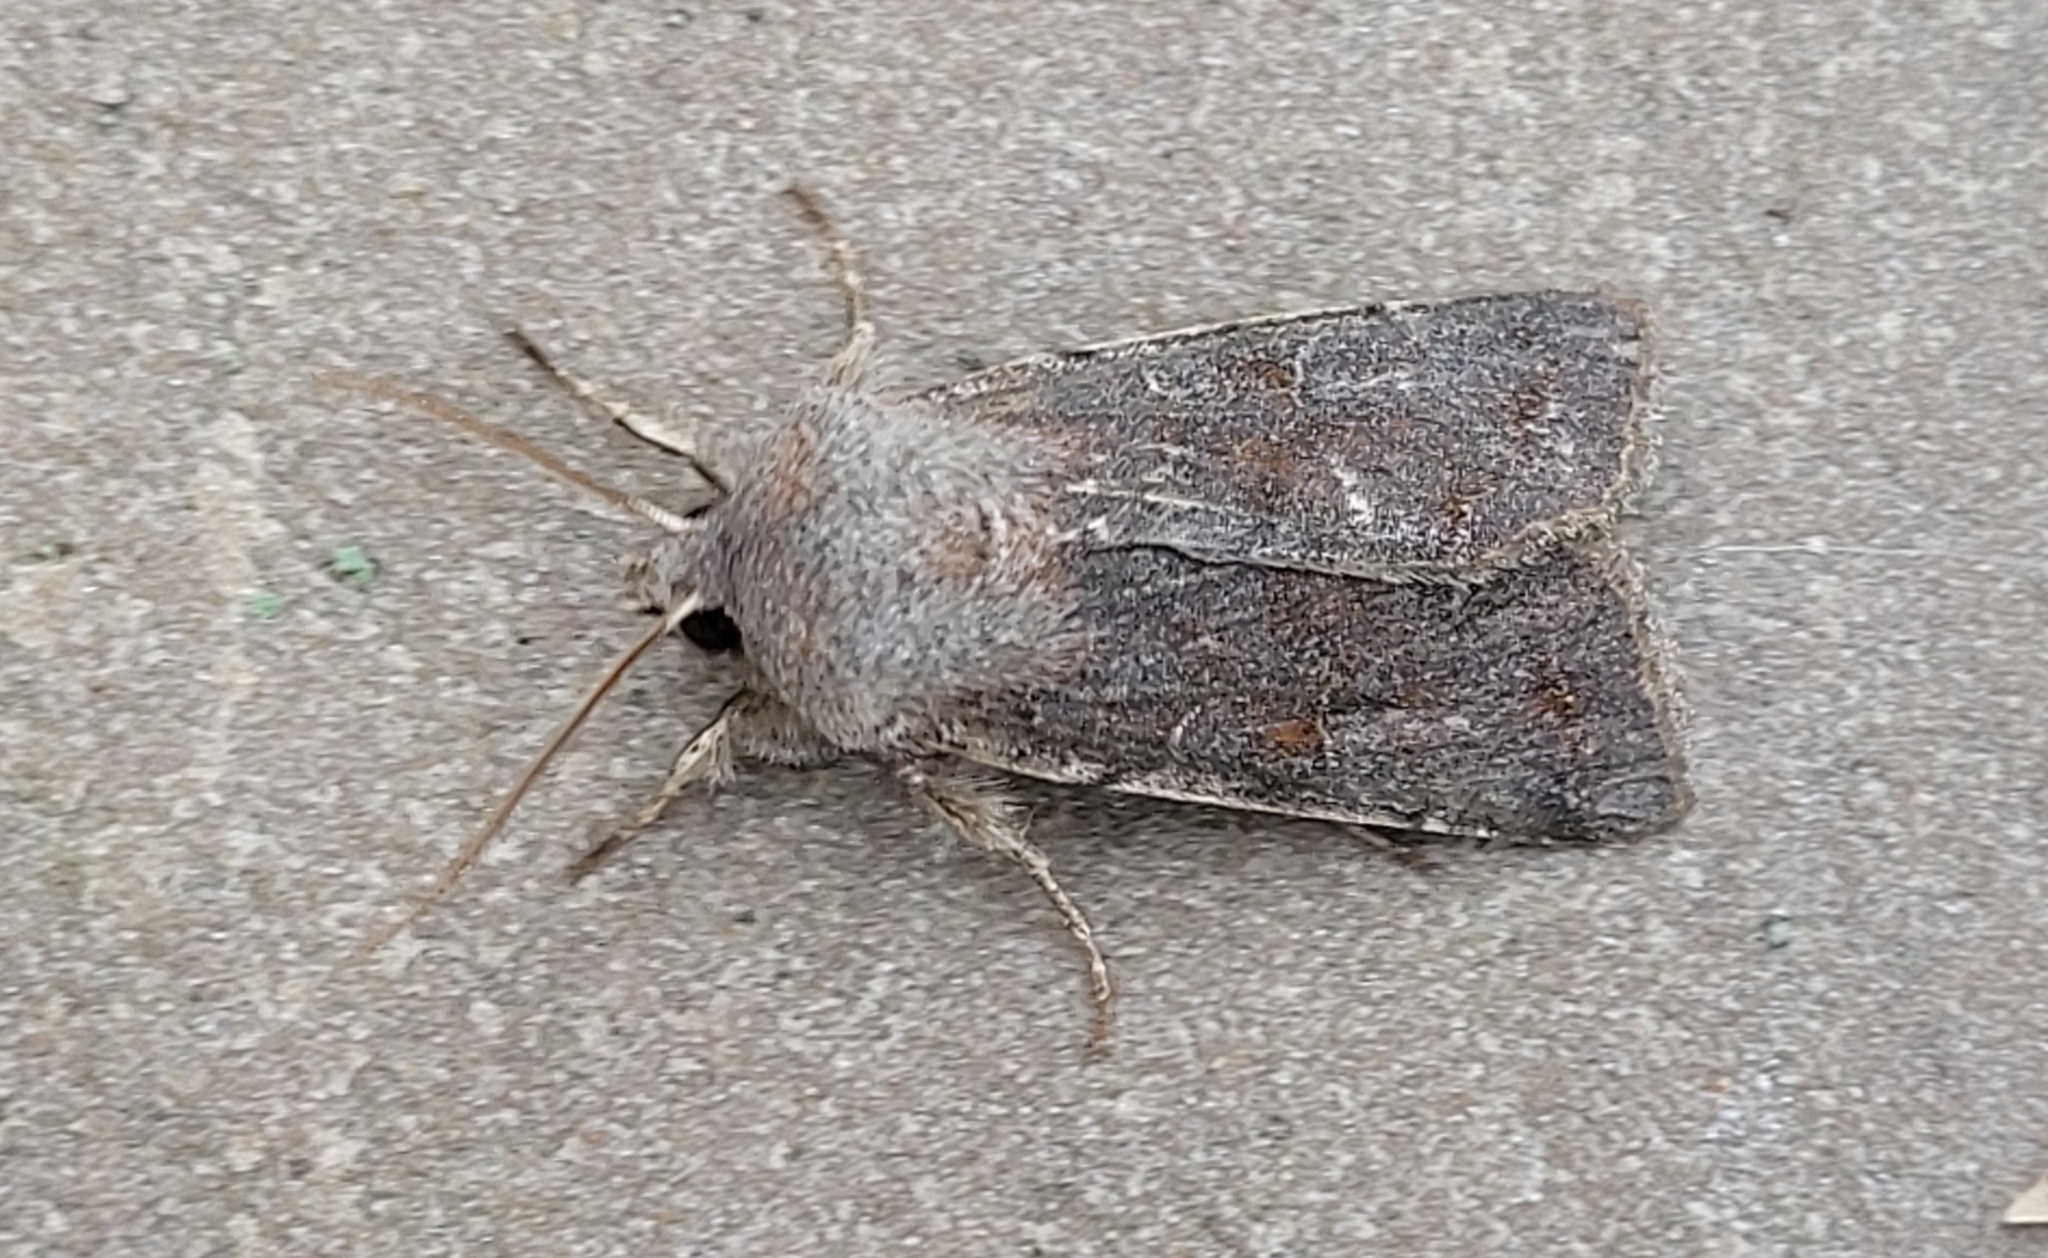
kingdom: Animalia
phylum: Arthropoda
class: Insecta
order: Lepidoptera
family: Noctuidae
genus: Orthosia
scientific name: Orthosia incerta
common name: Clouded drab
